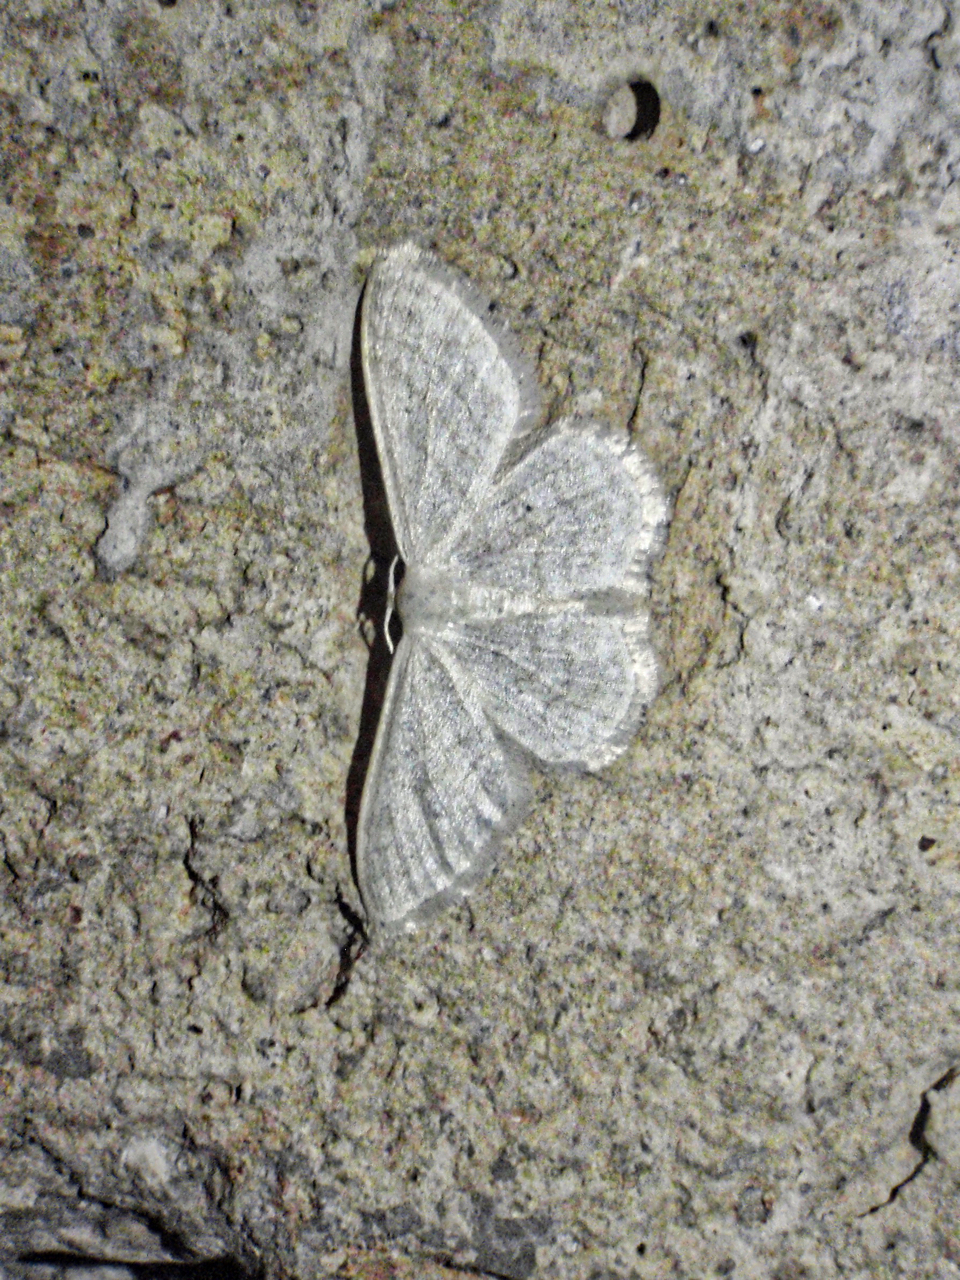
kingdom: Animalia
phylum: Arthropoda
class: Insecta
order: Lepidoptera
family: Geometridae
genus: Idaea
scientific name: Idaea subsericeata
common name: Satin wave
